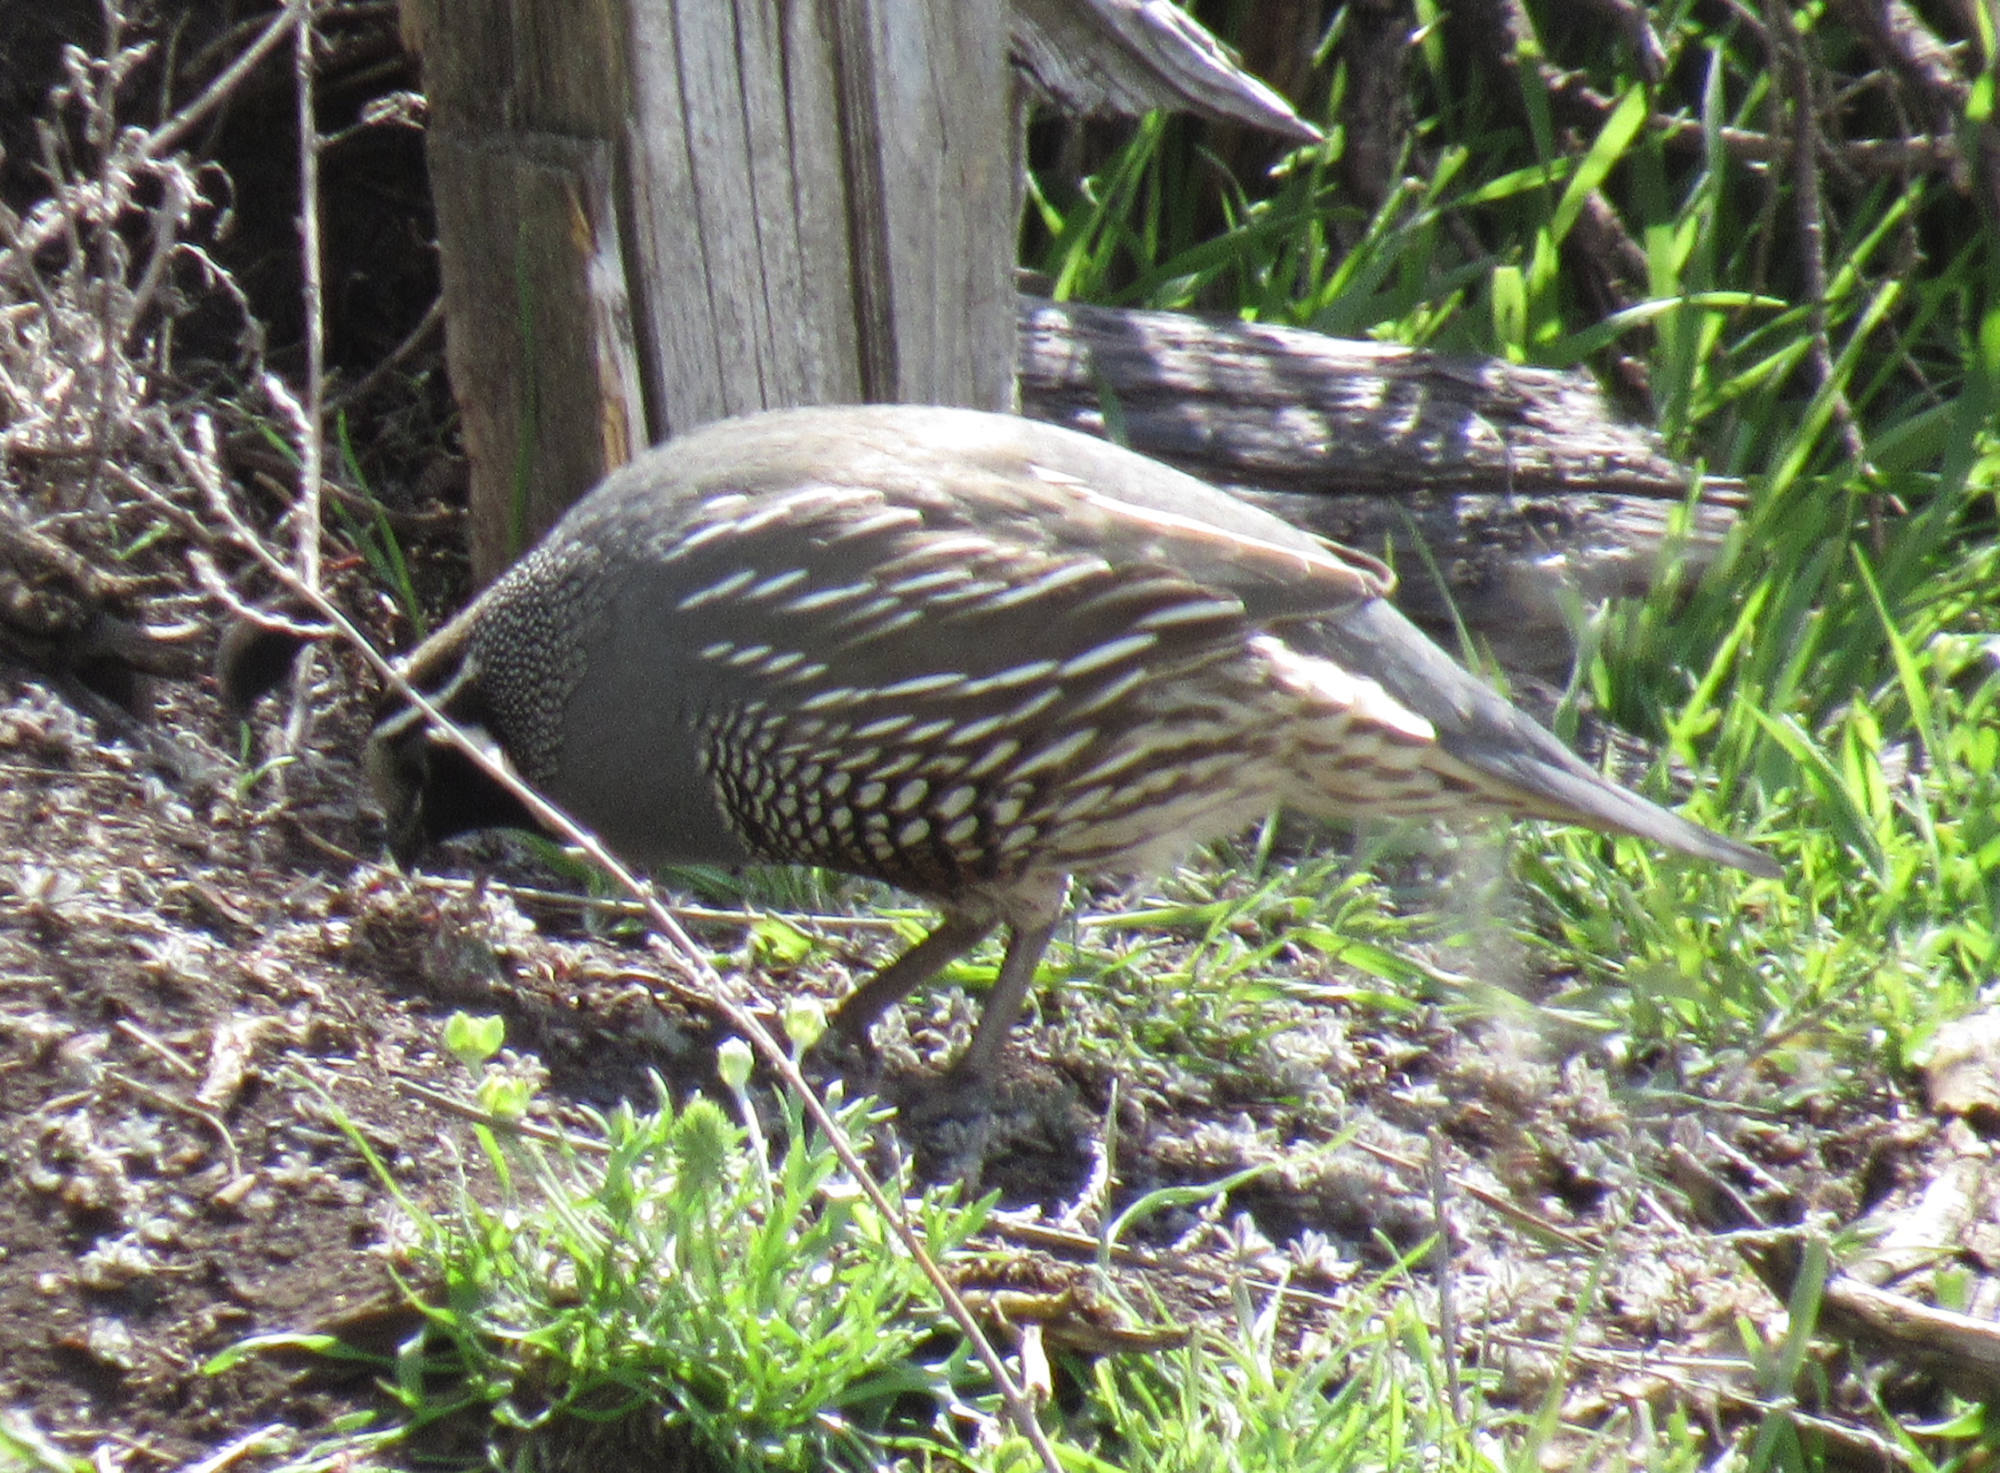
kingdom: Animalia
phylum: Chordata
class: Aves
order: Galliformes
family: Odontophoridae
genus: Callipepla
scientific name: Callipepla californica
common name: California quail
